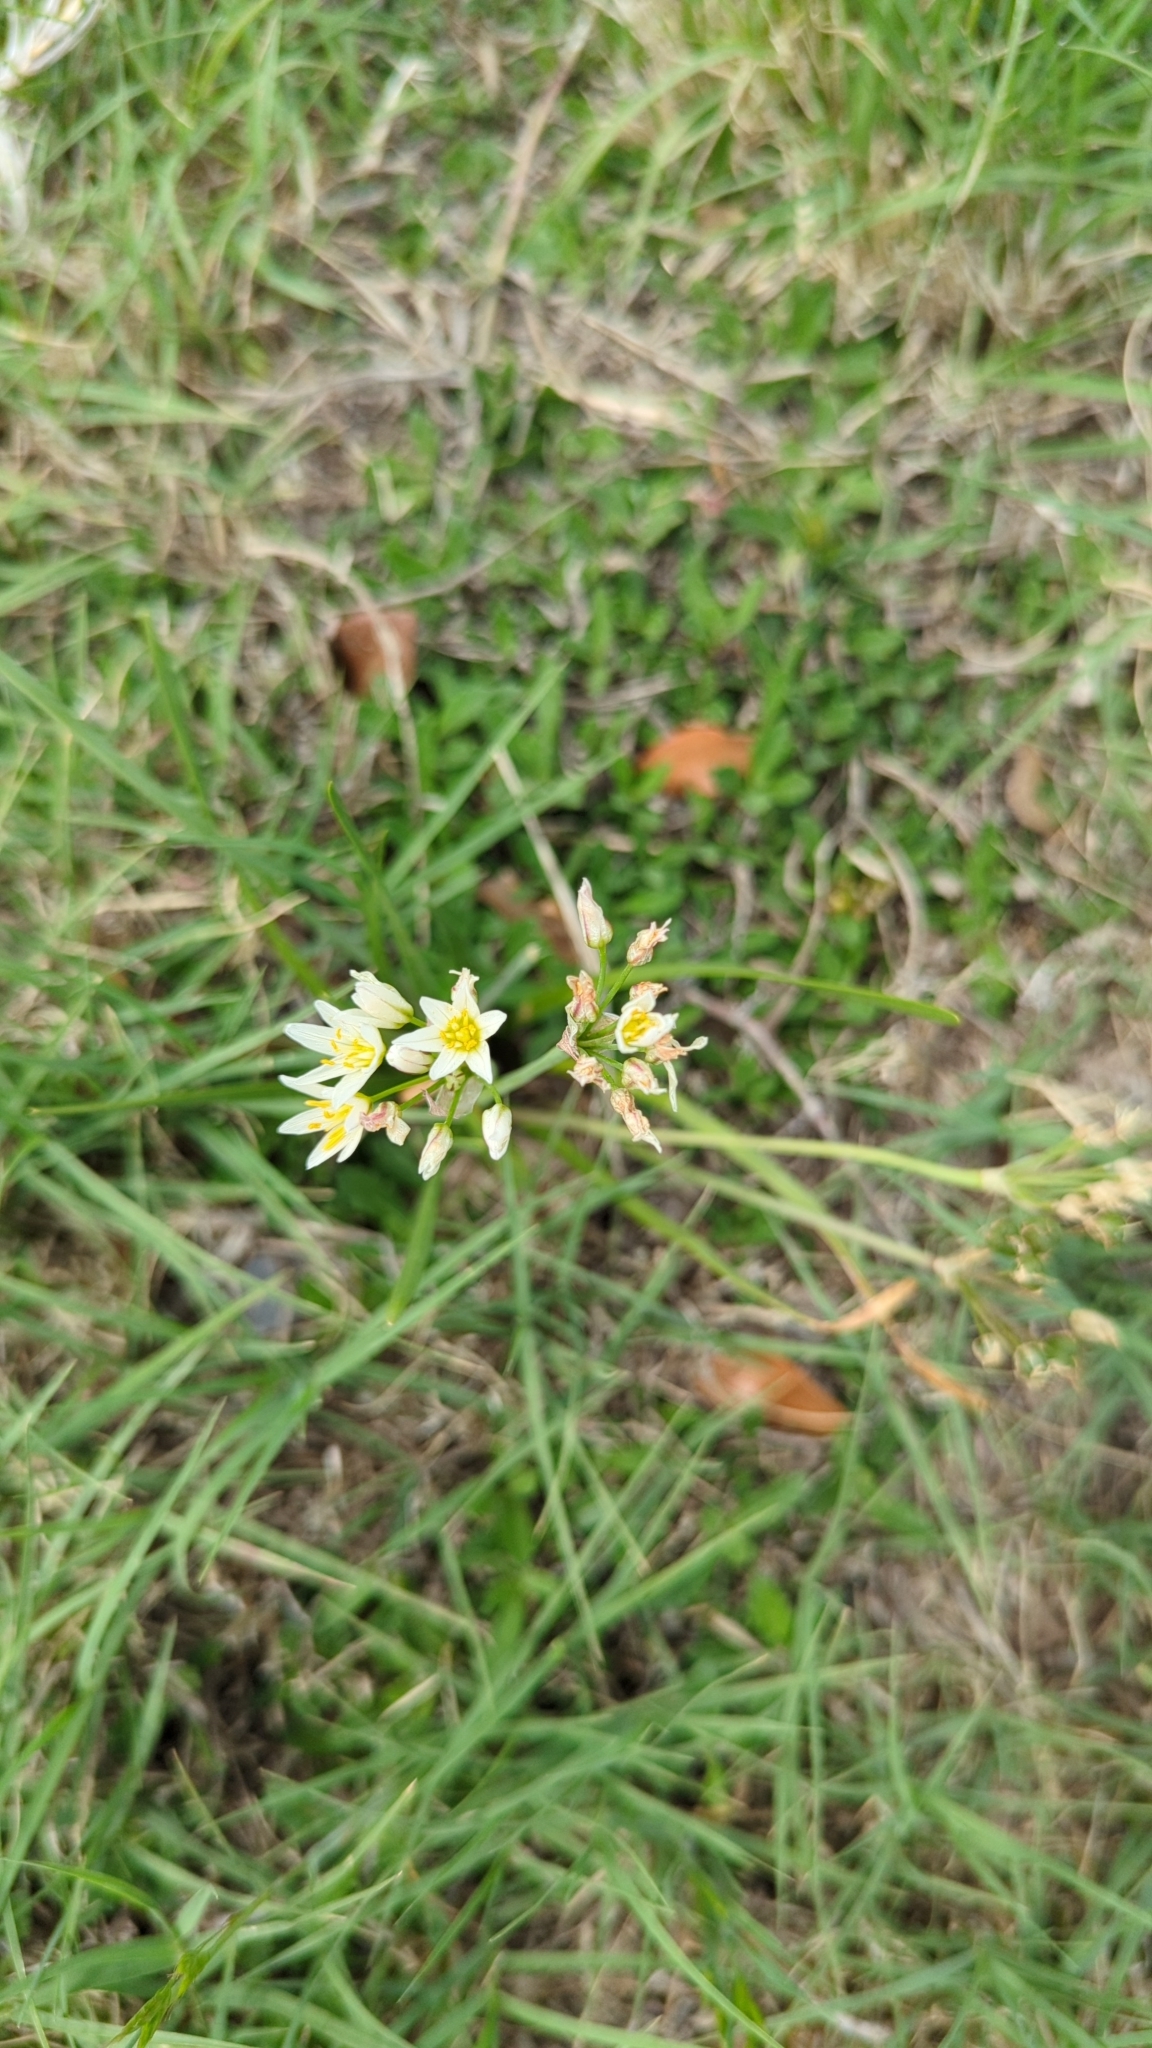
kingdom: Plantae
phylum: Tracheophyta
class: Liliopsida
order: Asparagales
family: Amaryllidaceae
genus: Nothoscordum
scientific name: Nothoscordum bivalve
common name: Crow-poison
